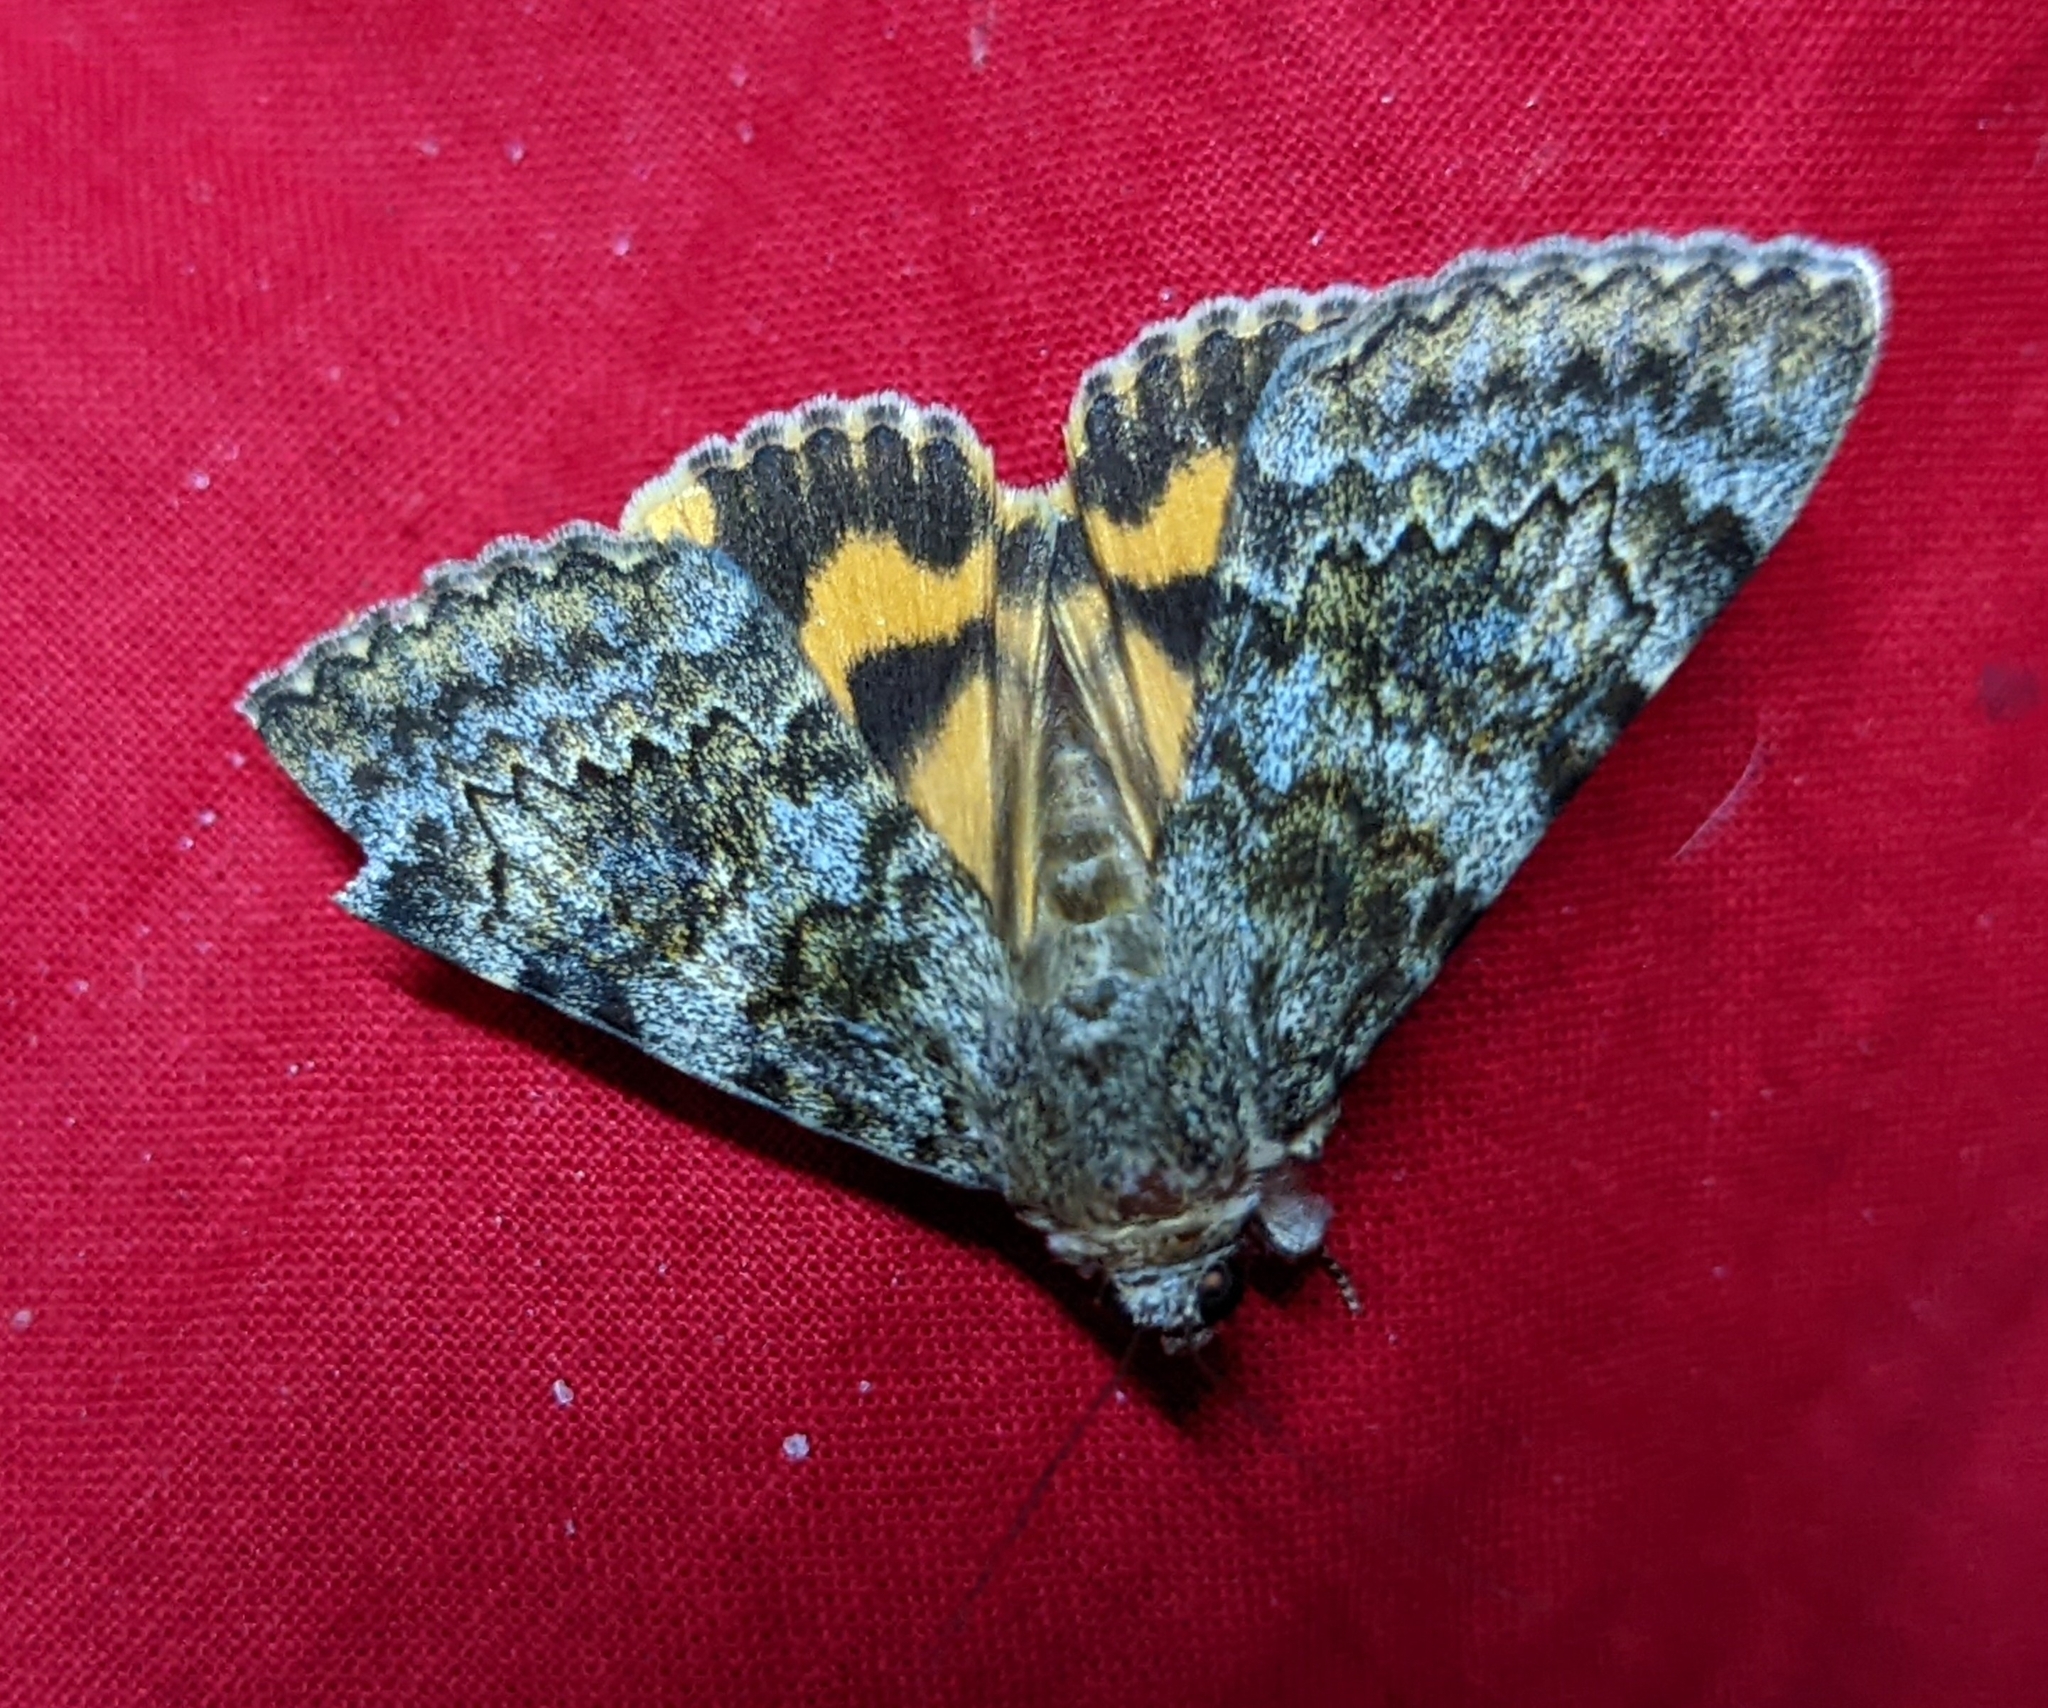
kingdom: Animalia
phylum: Arthropoda
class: Insecta
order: Lepidoptera
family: Erebidae
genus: Catocala
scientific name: Catocala nymphaea
